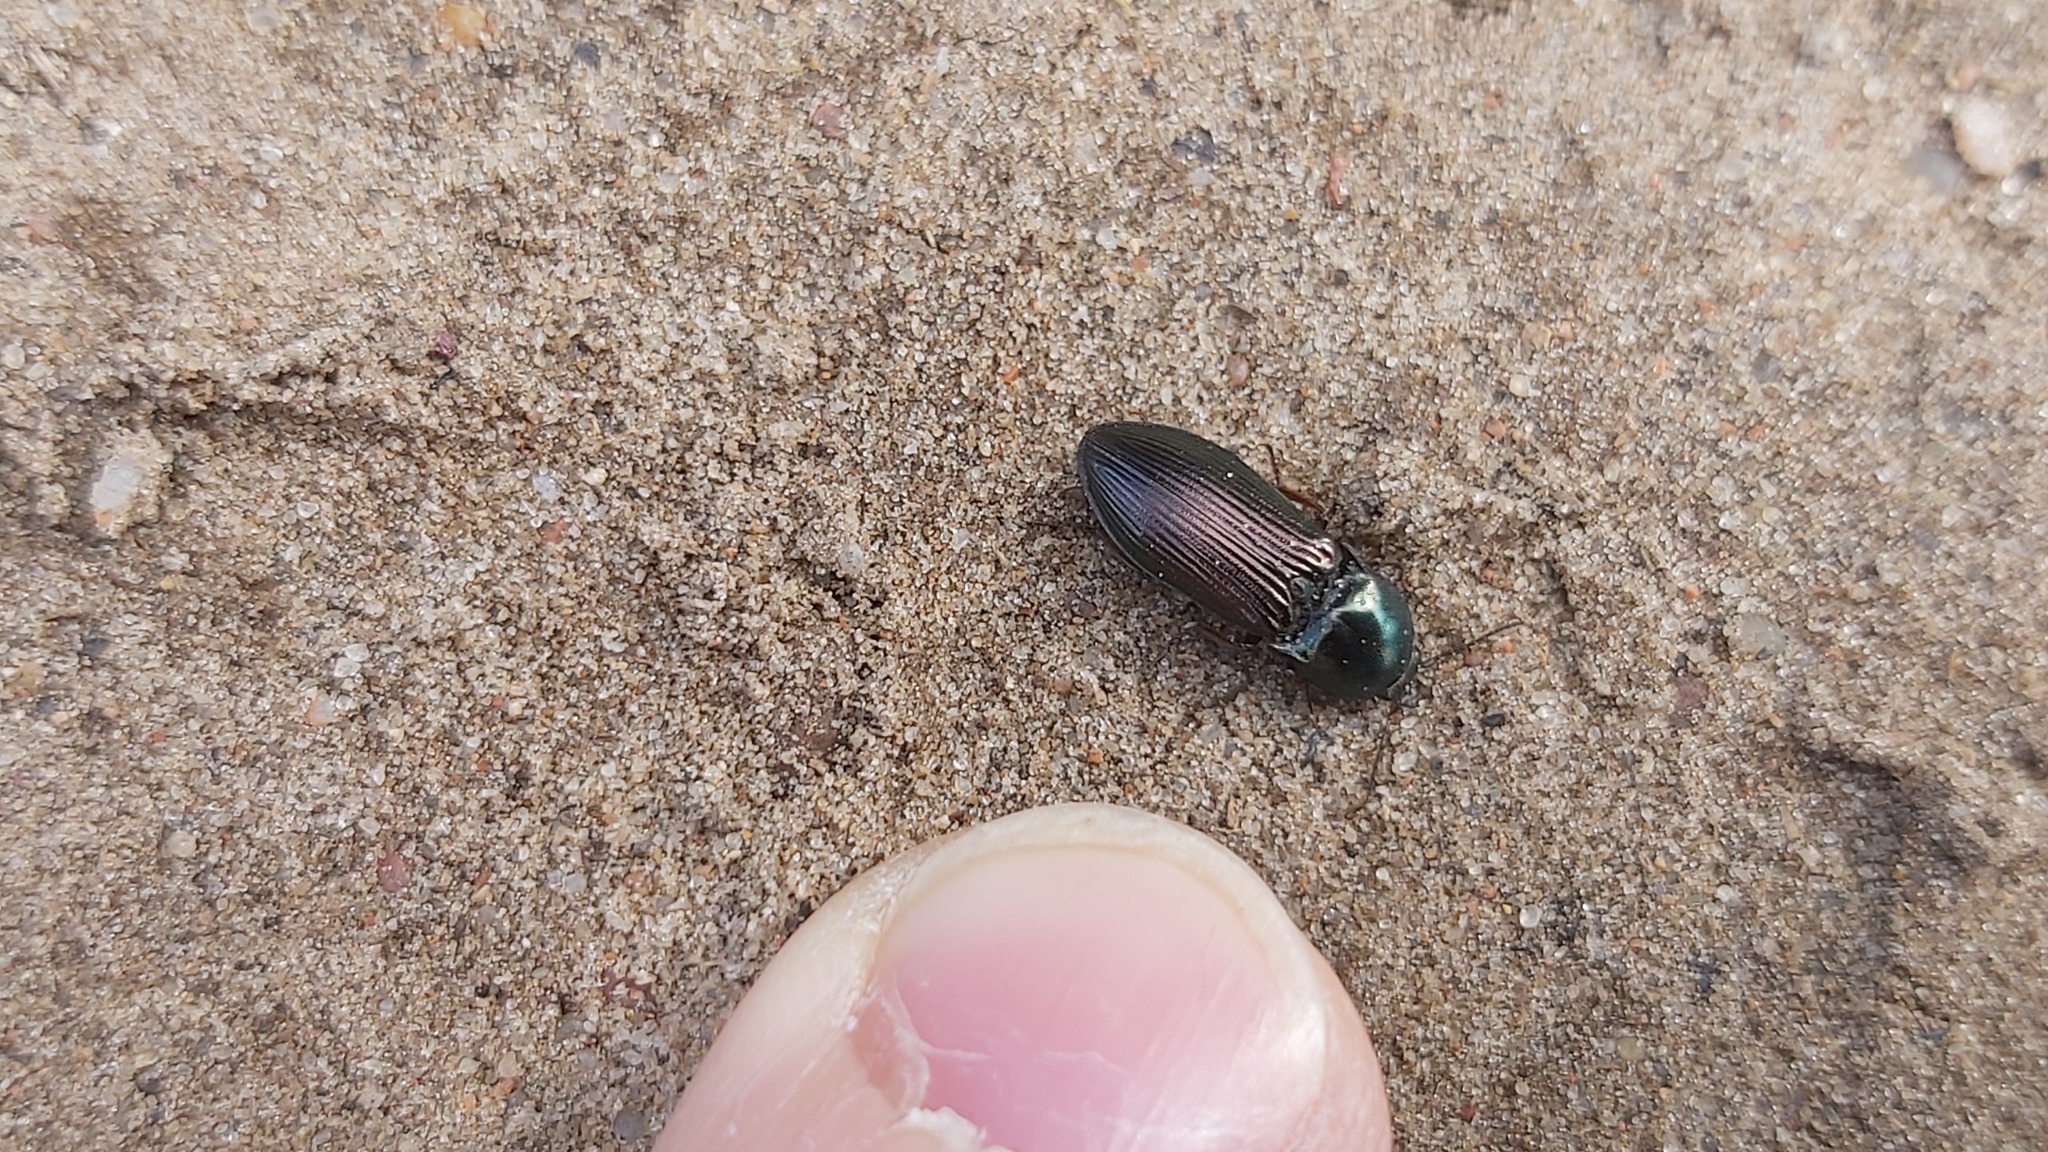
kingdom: Animalia
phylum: Arthropoda
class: Insecta
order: Coleoptera
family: Elateridae
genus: Selatosomus
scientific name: Selatosomus aeneus
